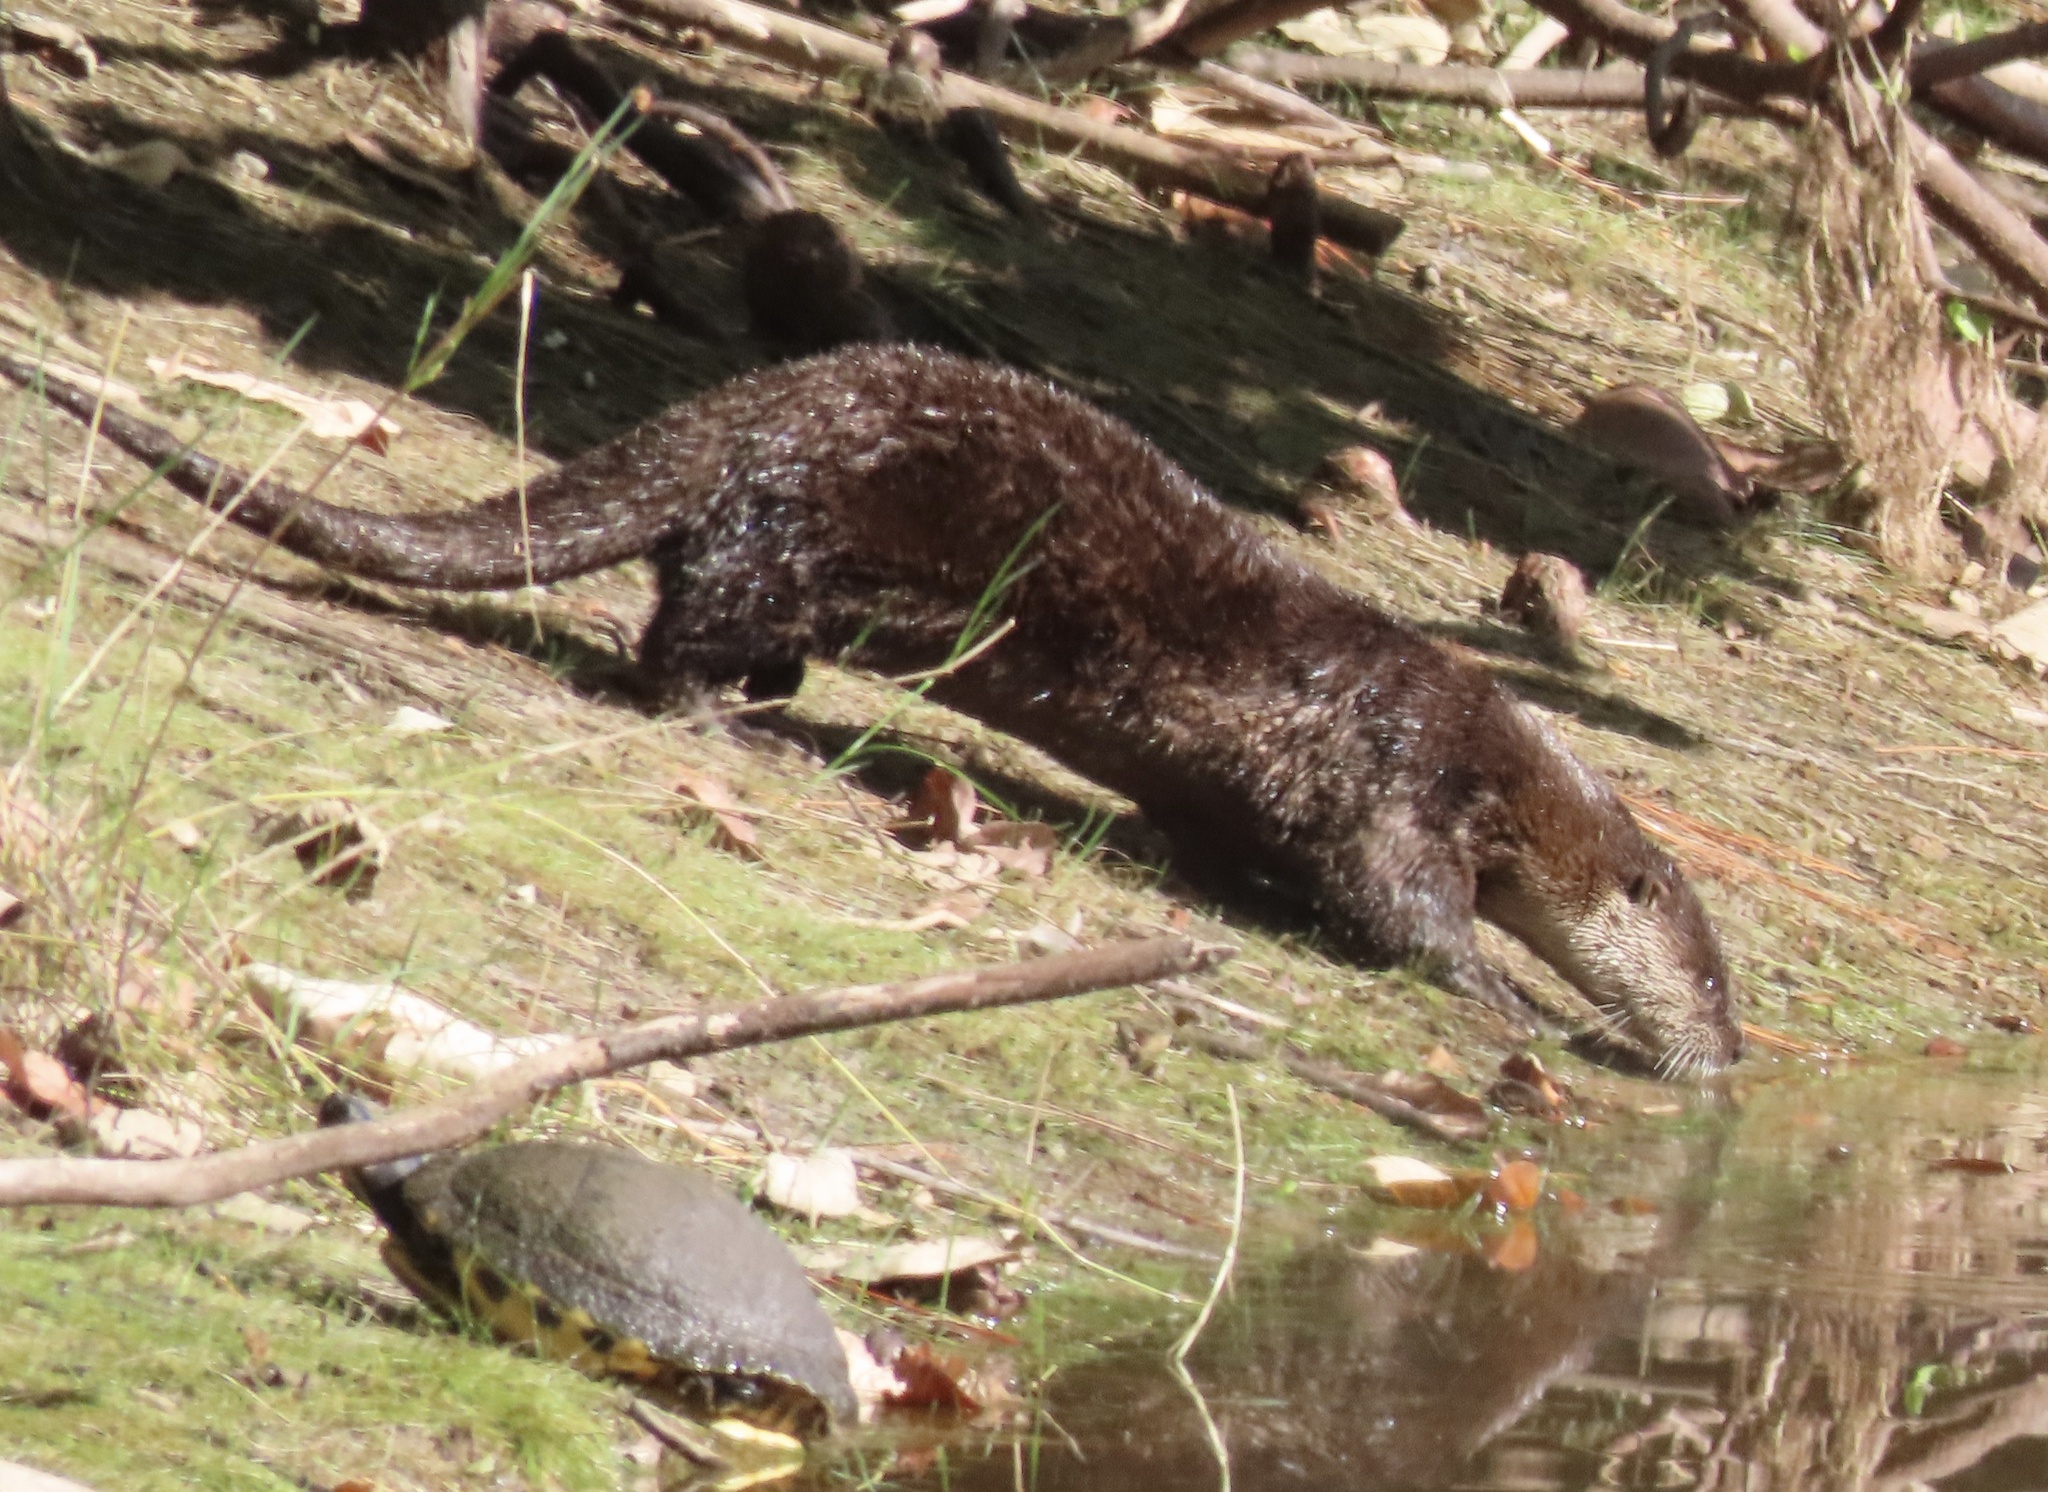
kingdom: Animalia
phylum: Chordata
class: Mammalia
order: Carnivora
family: Mustelidae
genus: Lontra
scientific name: Lontra canadensis
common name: North american river otter
